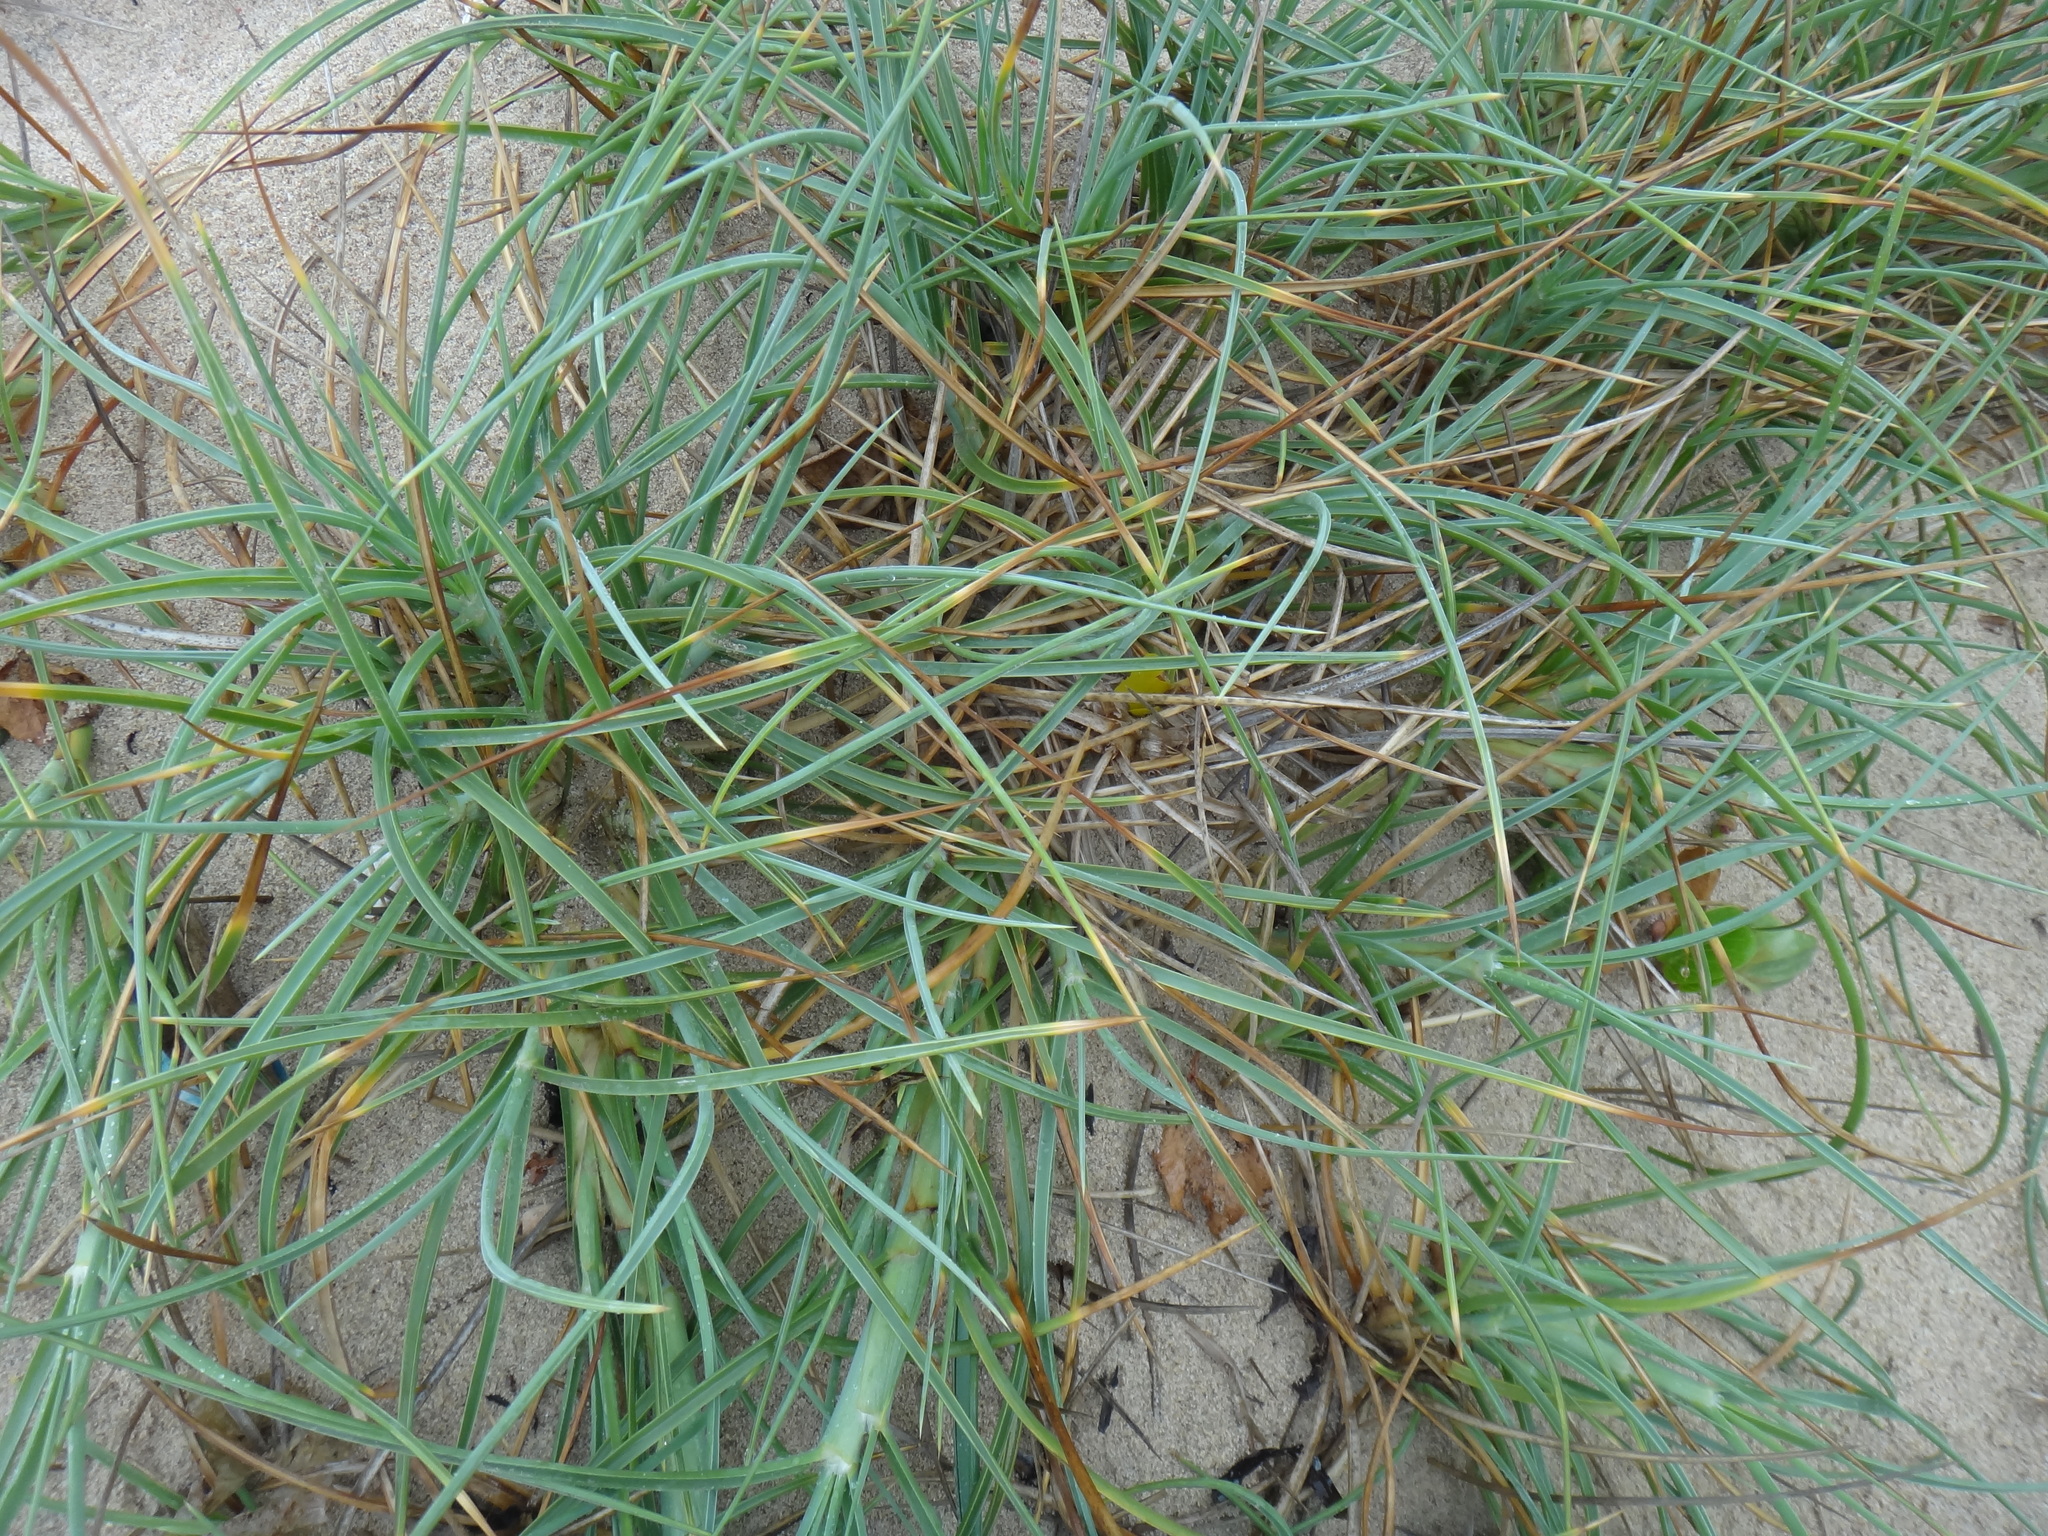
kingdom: Plantae
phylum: Tracheophyta
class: Liliopsida
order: Poales
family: Poaceae
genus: Spinifex
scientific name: Spinifex littoreus
